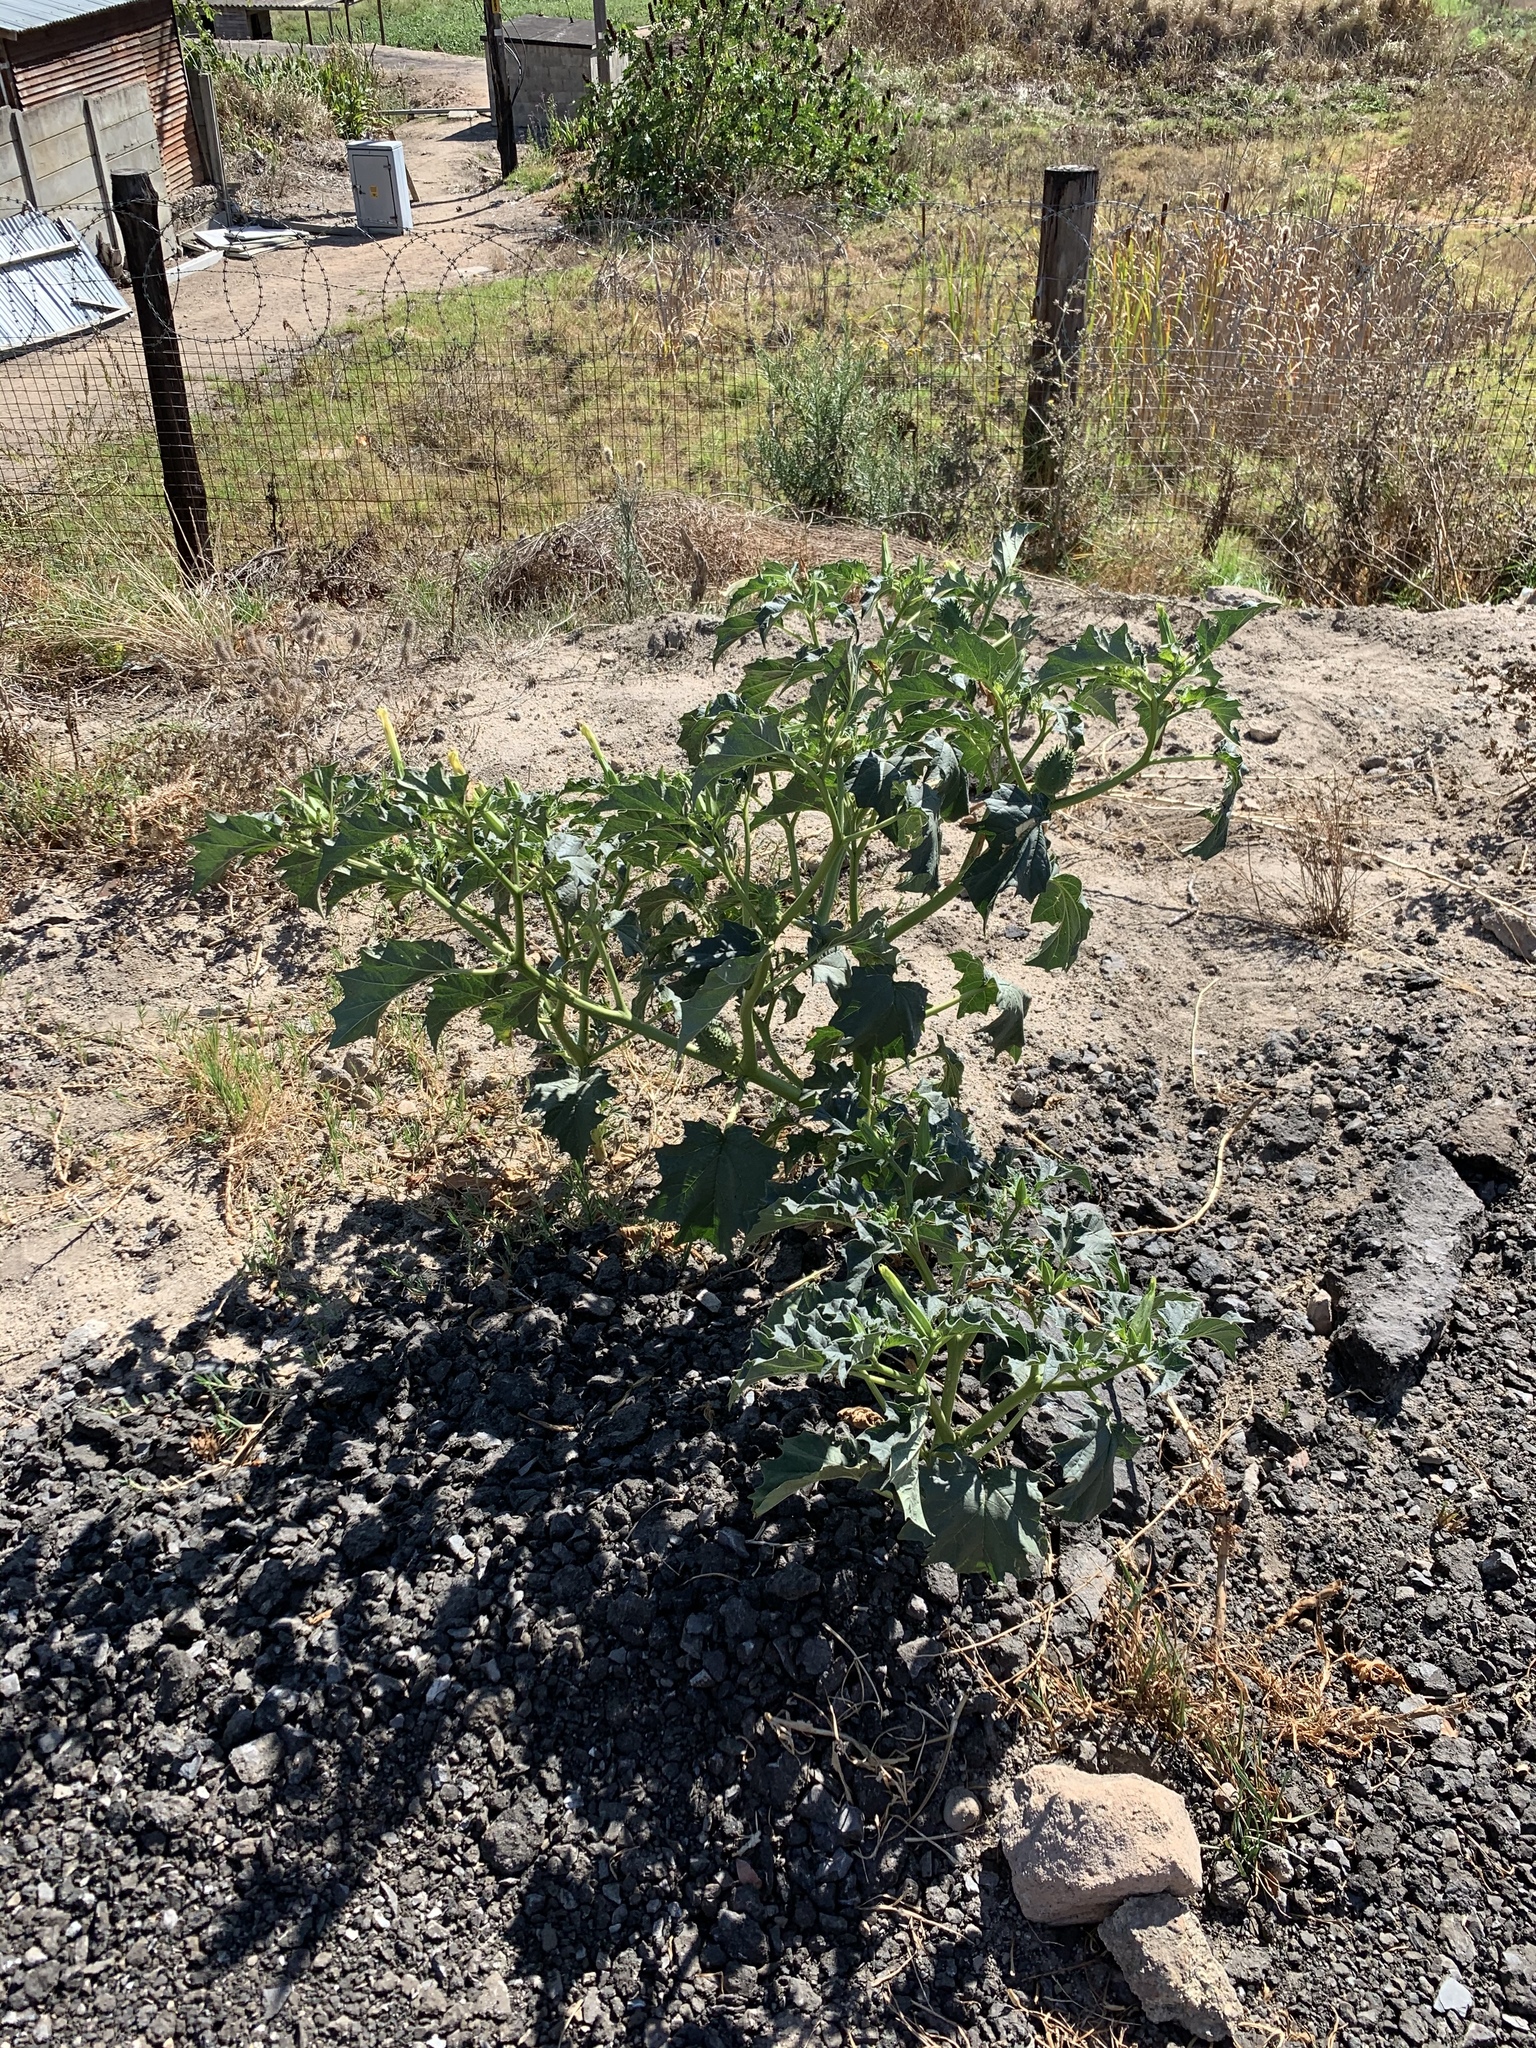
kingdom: Plantae
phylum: Tracheophyta
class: Magnoliopsida
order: Solanales
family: Solanaceae
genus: Datura
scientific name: Datura stramonium
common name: Thorn-apple
